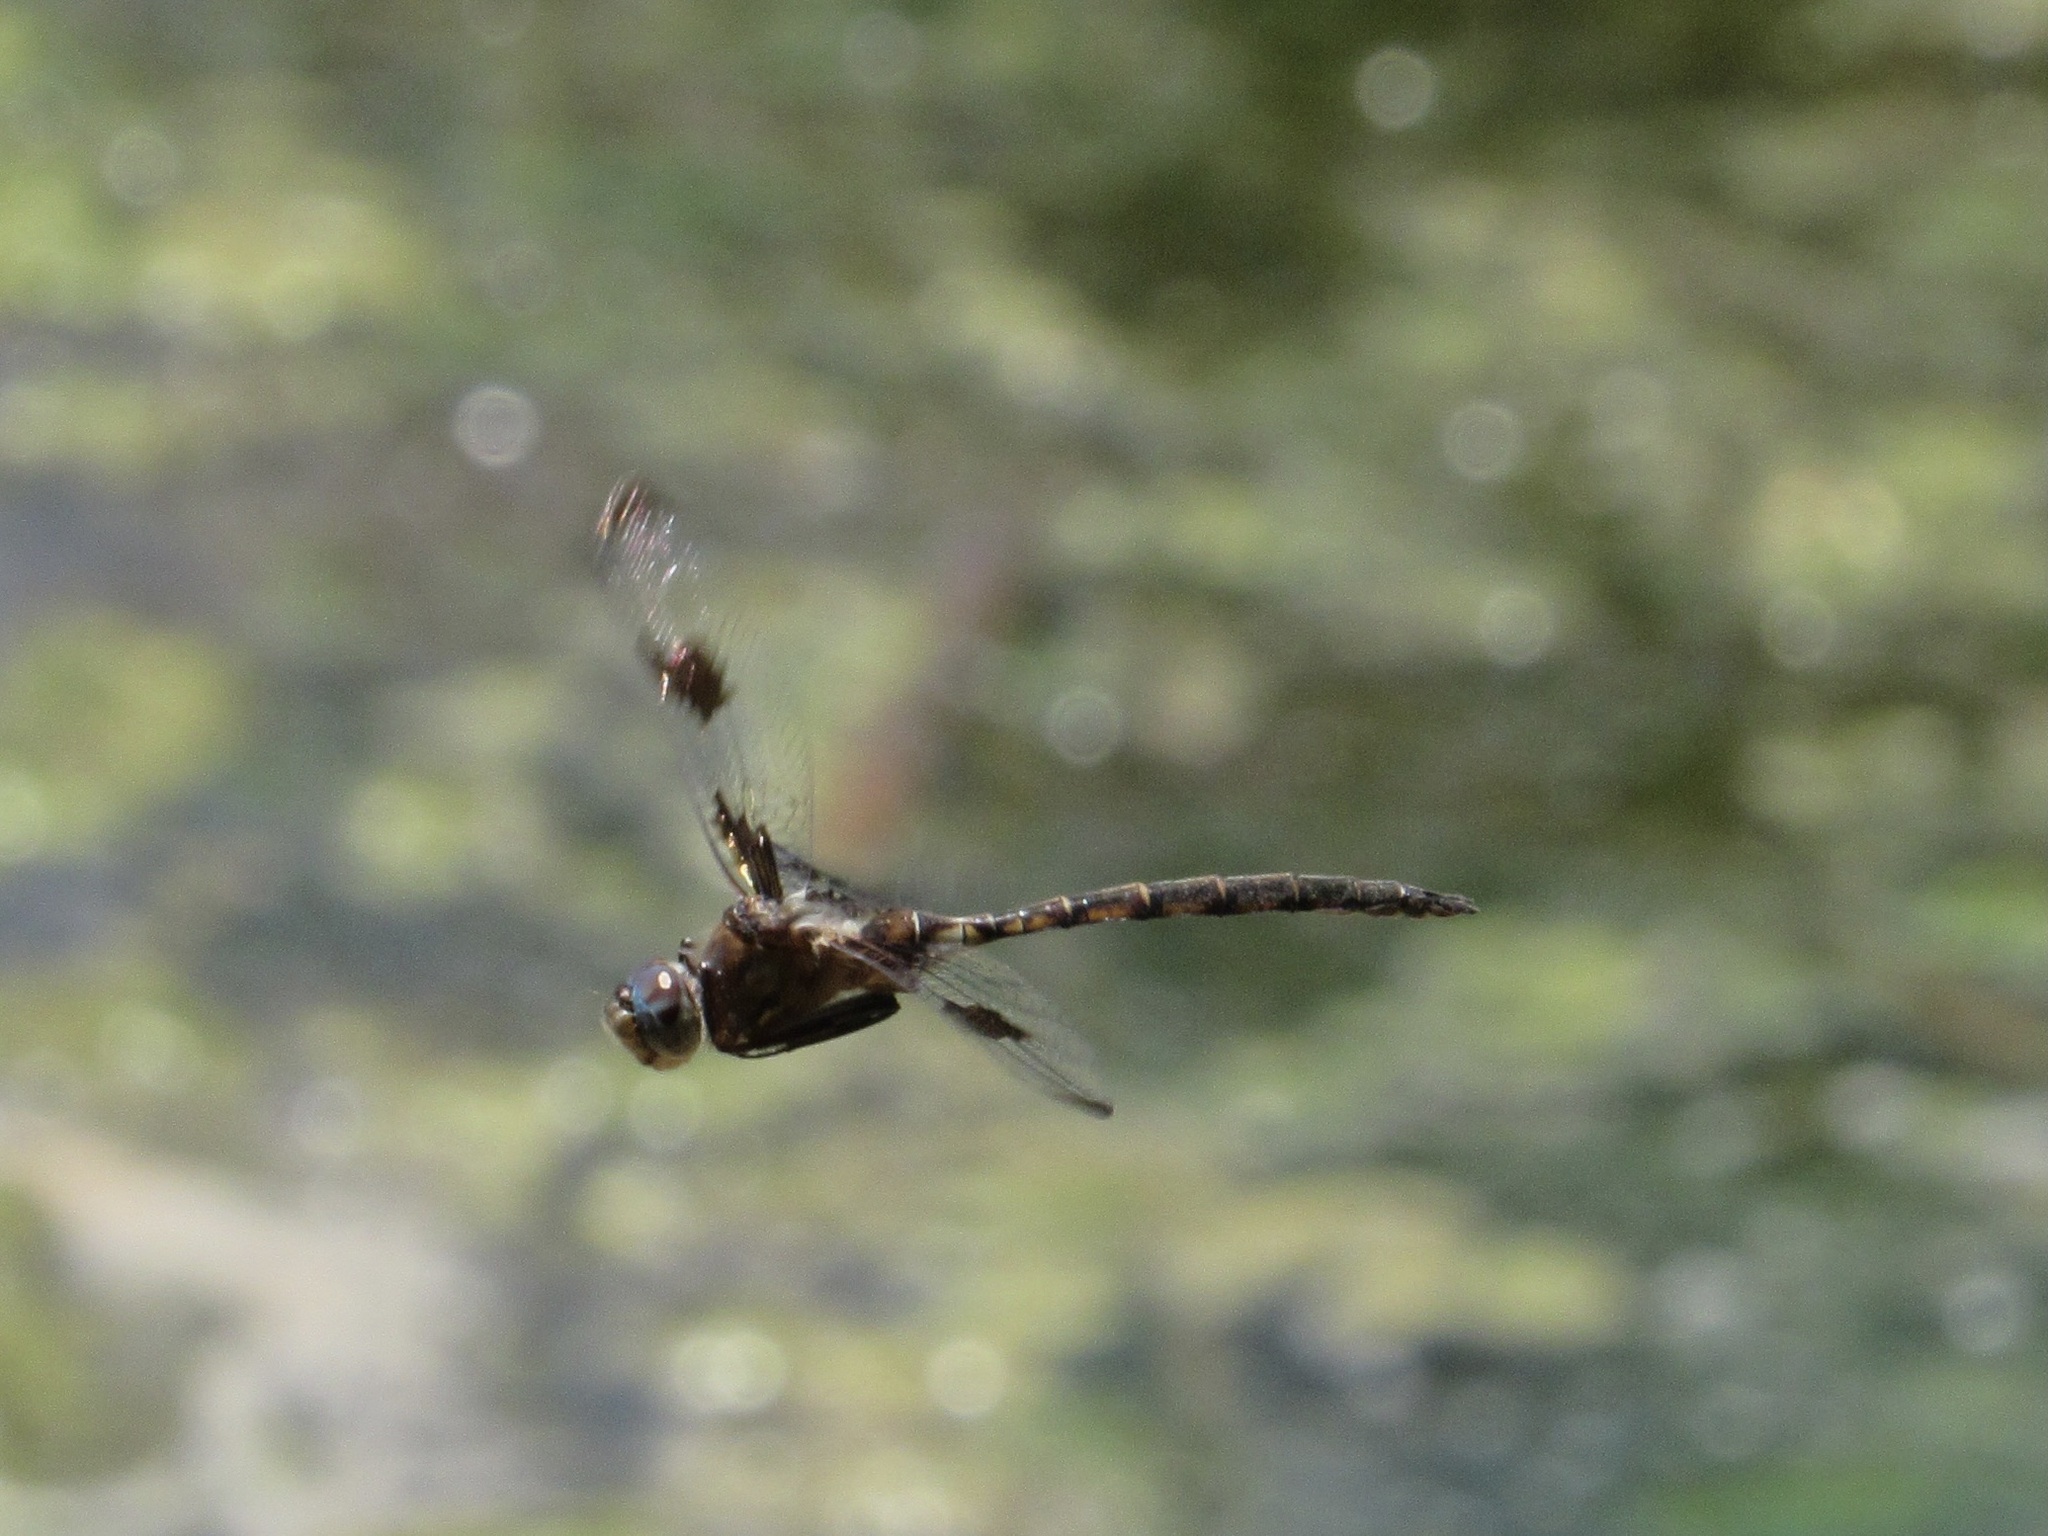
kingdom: Animalia
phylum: Arthropoda
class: Insecta
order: Odonata
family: Corduliidae
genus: Epitheca
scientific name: Epitheca princeps
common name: Prince baskettail
